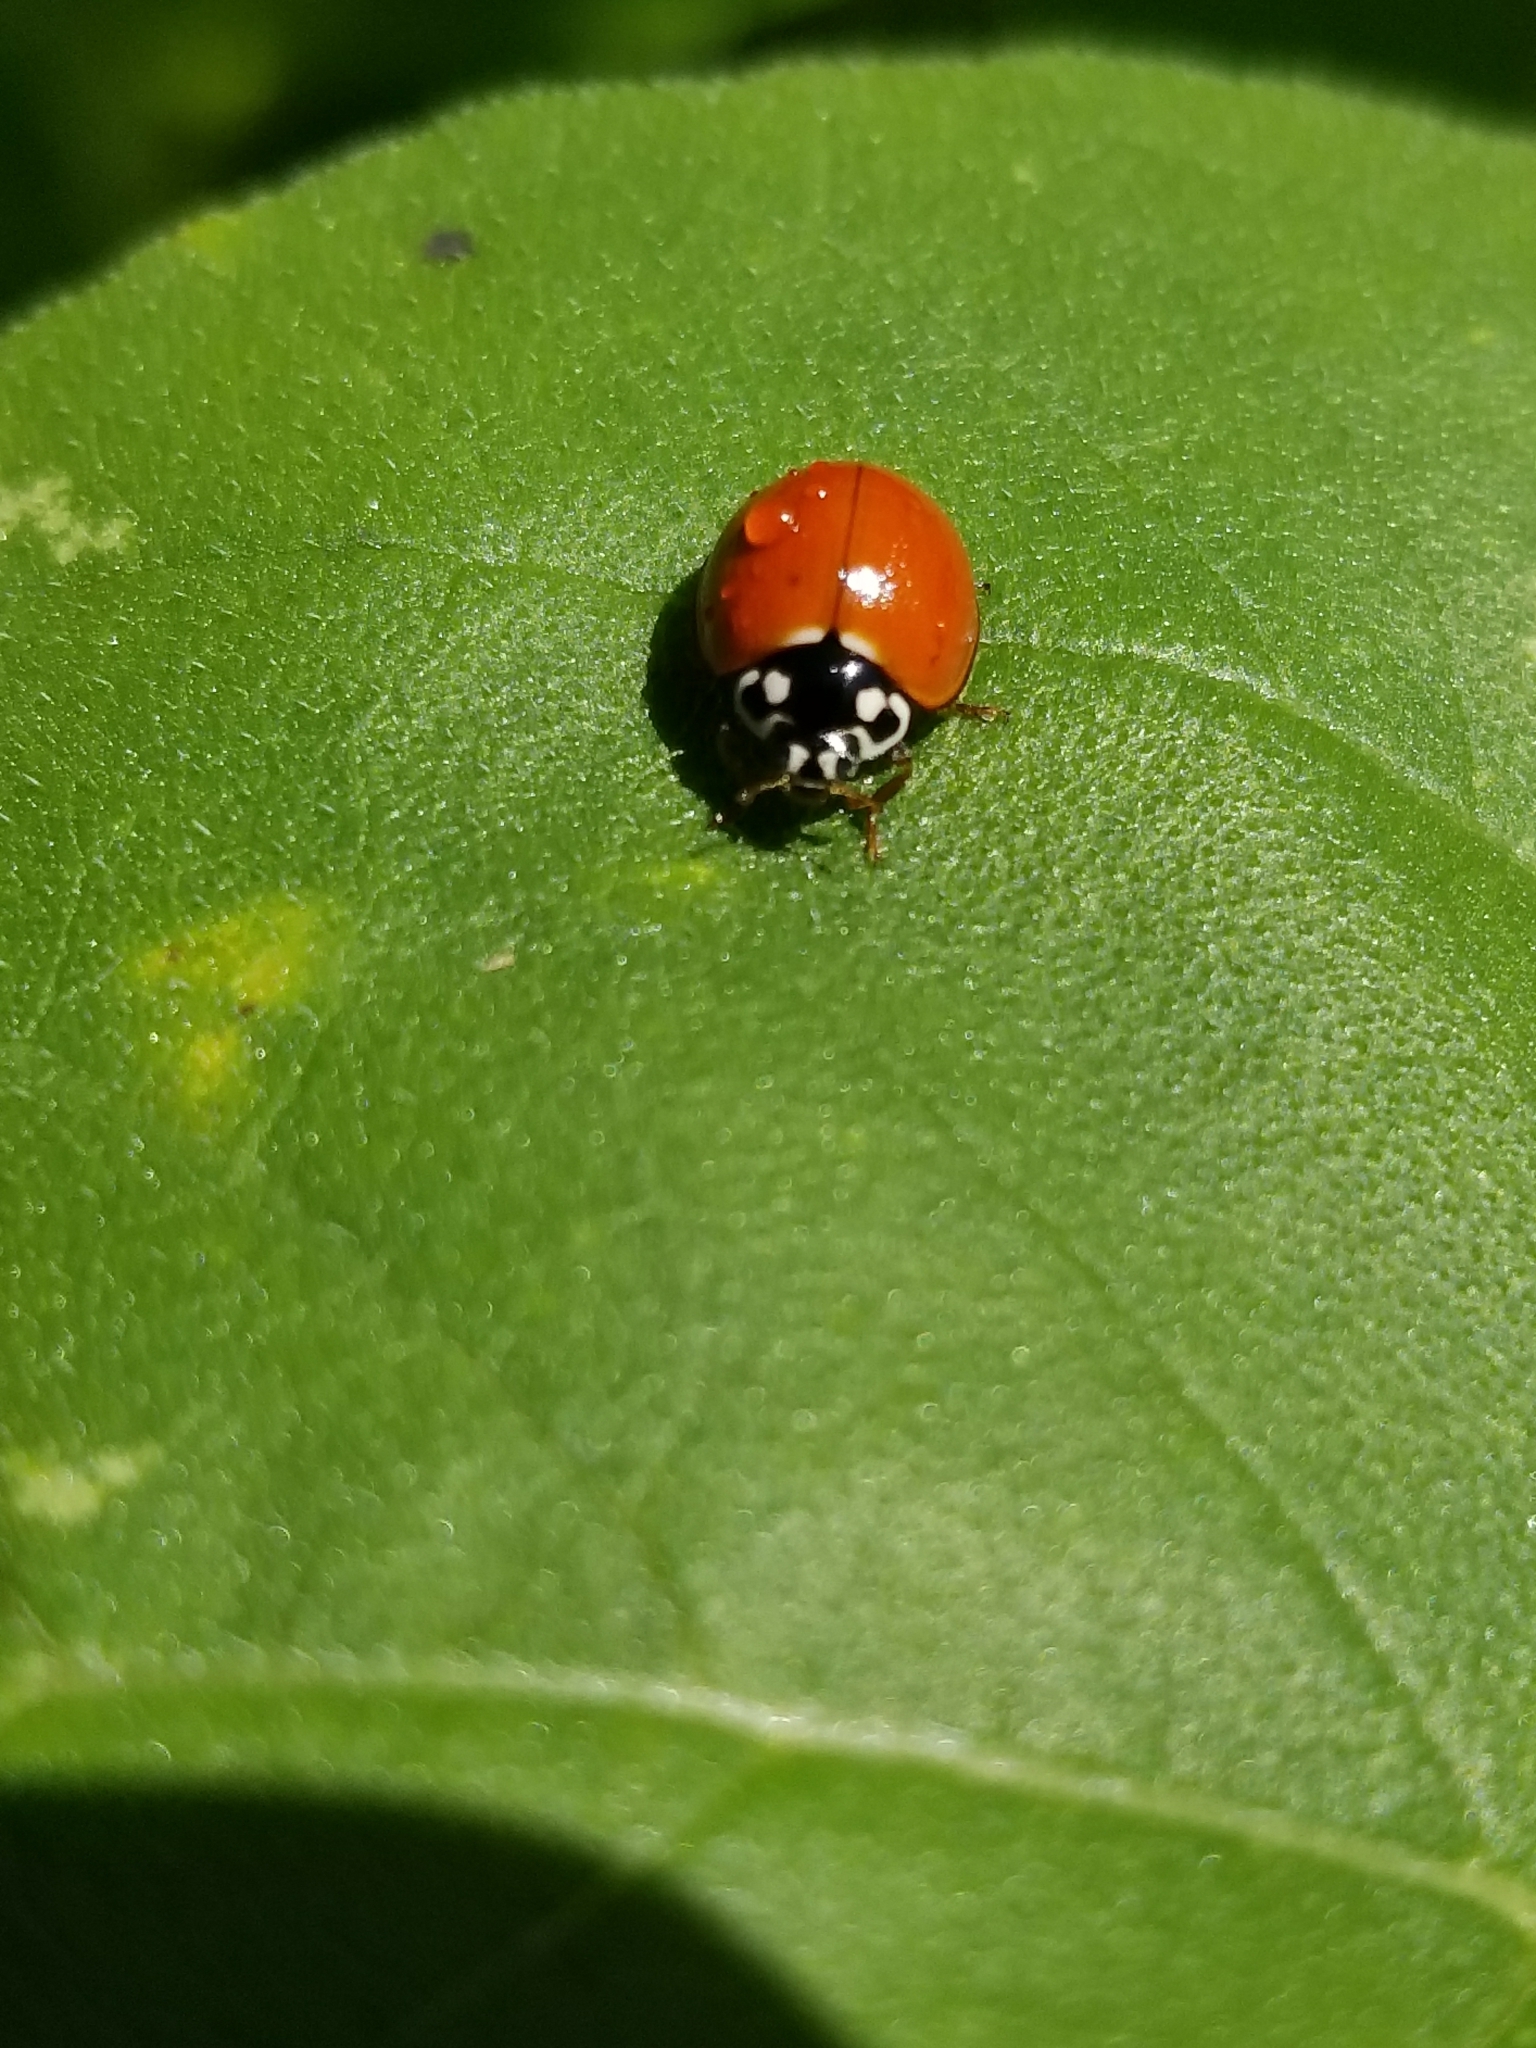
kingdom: Animalia
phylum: Arthropoda
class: Insecta
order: Coleoptera
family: Coccinellidae
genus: Cycloneda
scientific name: Cycloneda sanguinea
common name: Ladybird beetle
